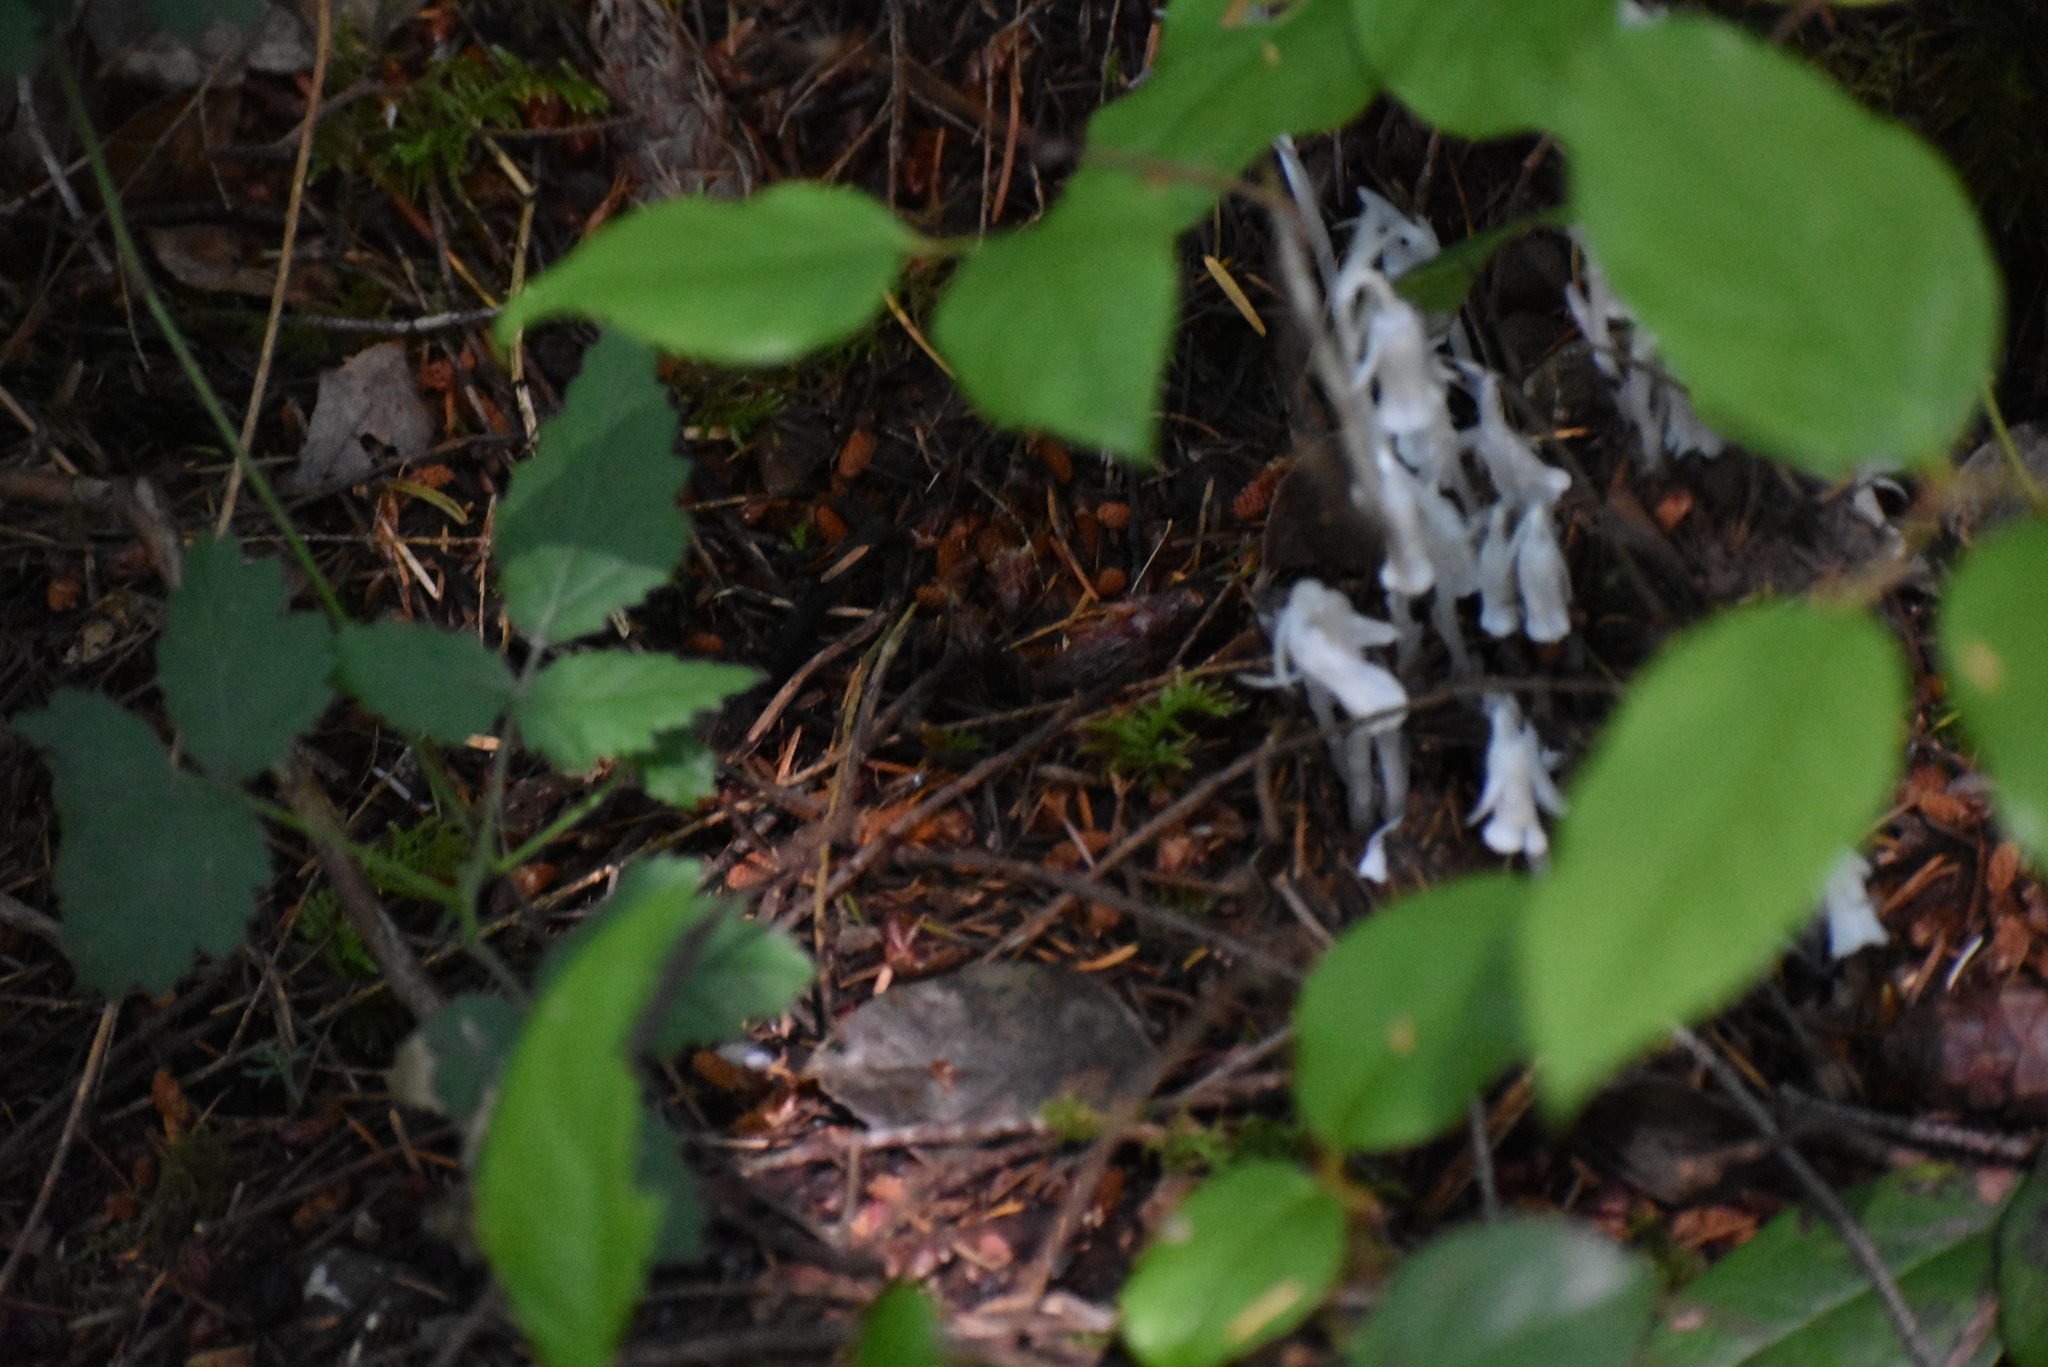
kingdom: Plantae
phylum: Tracheophyta
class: Magnoliopsida
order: Ericales
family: Ericaceae
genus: Monotropa
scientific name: Monotropa uniflora
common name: Convulsion root
